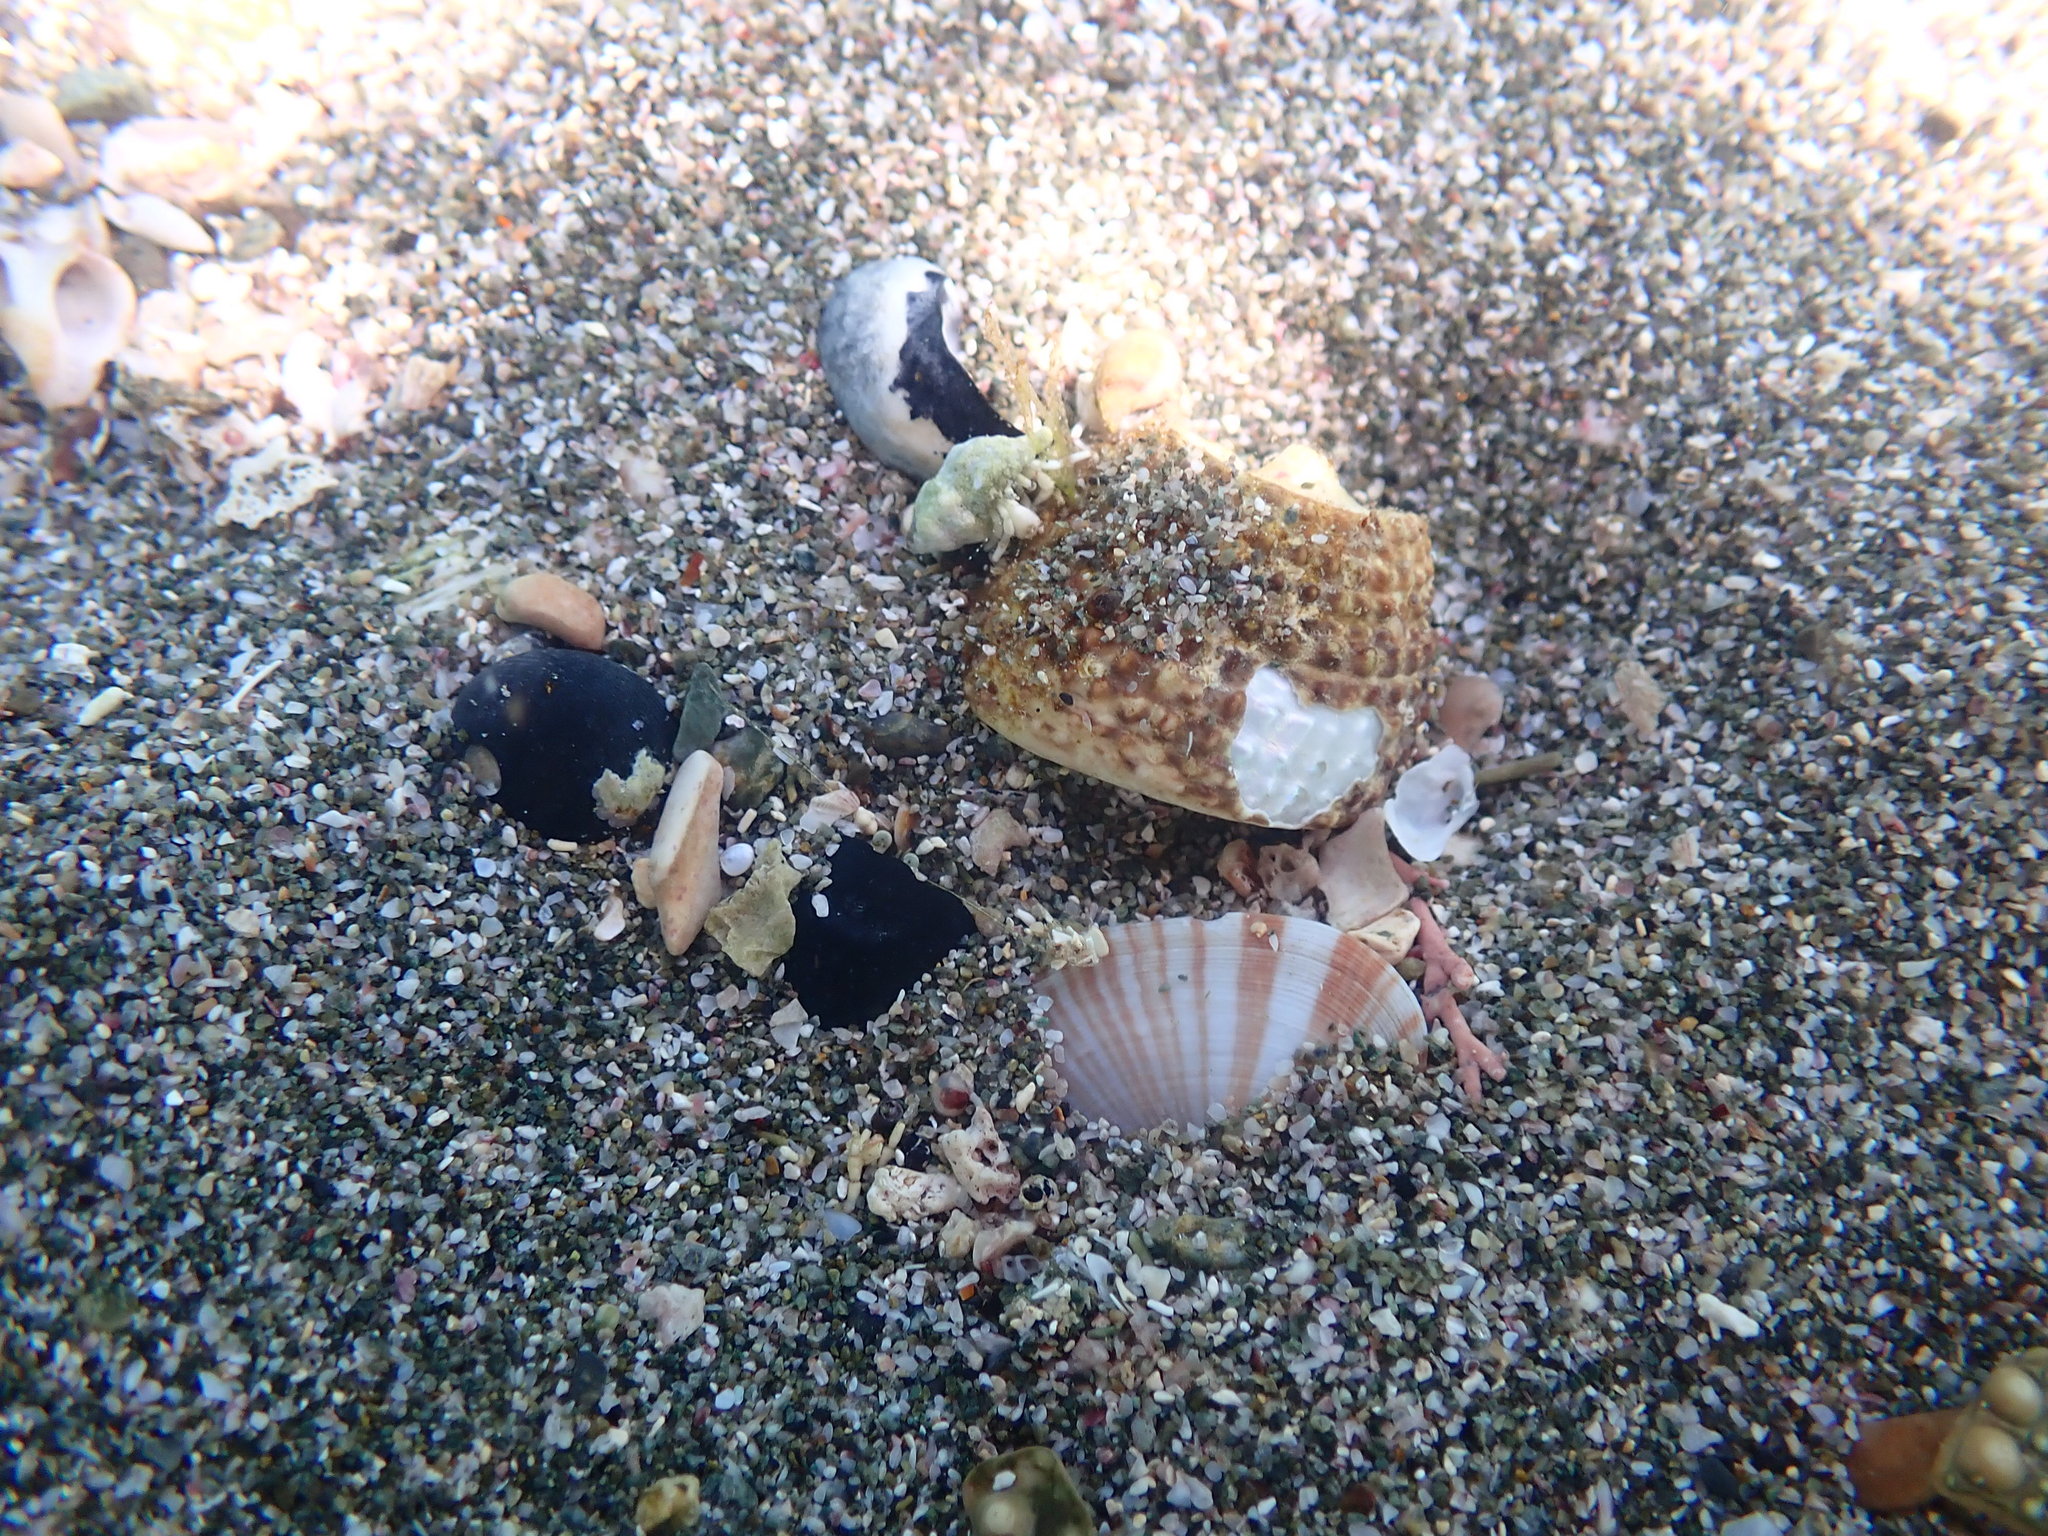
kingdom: Animalia
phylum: Mollusca
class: Bivalvia
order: Cardiida
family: Psammobiidae
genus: Gari
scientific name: Gari stangeri
